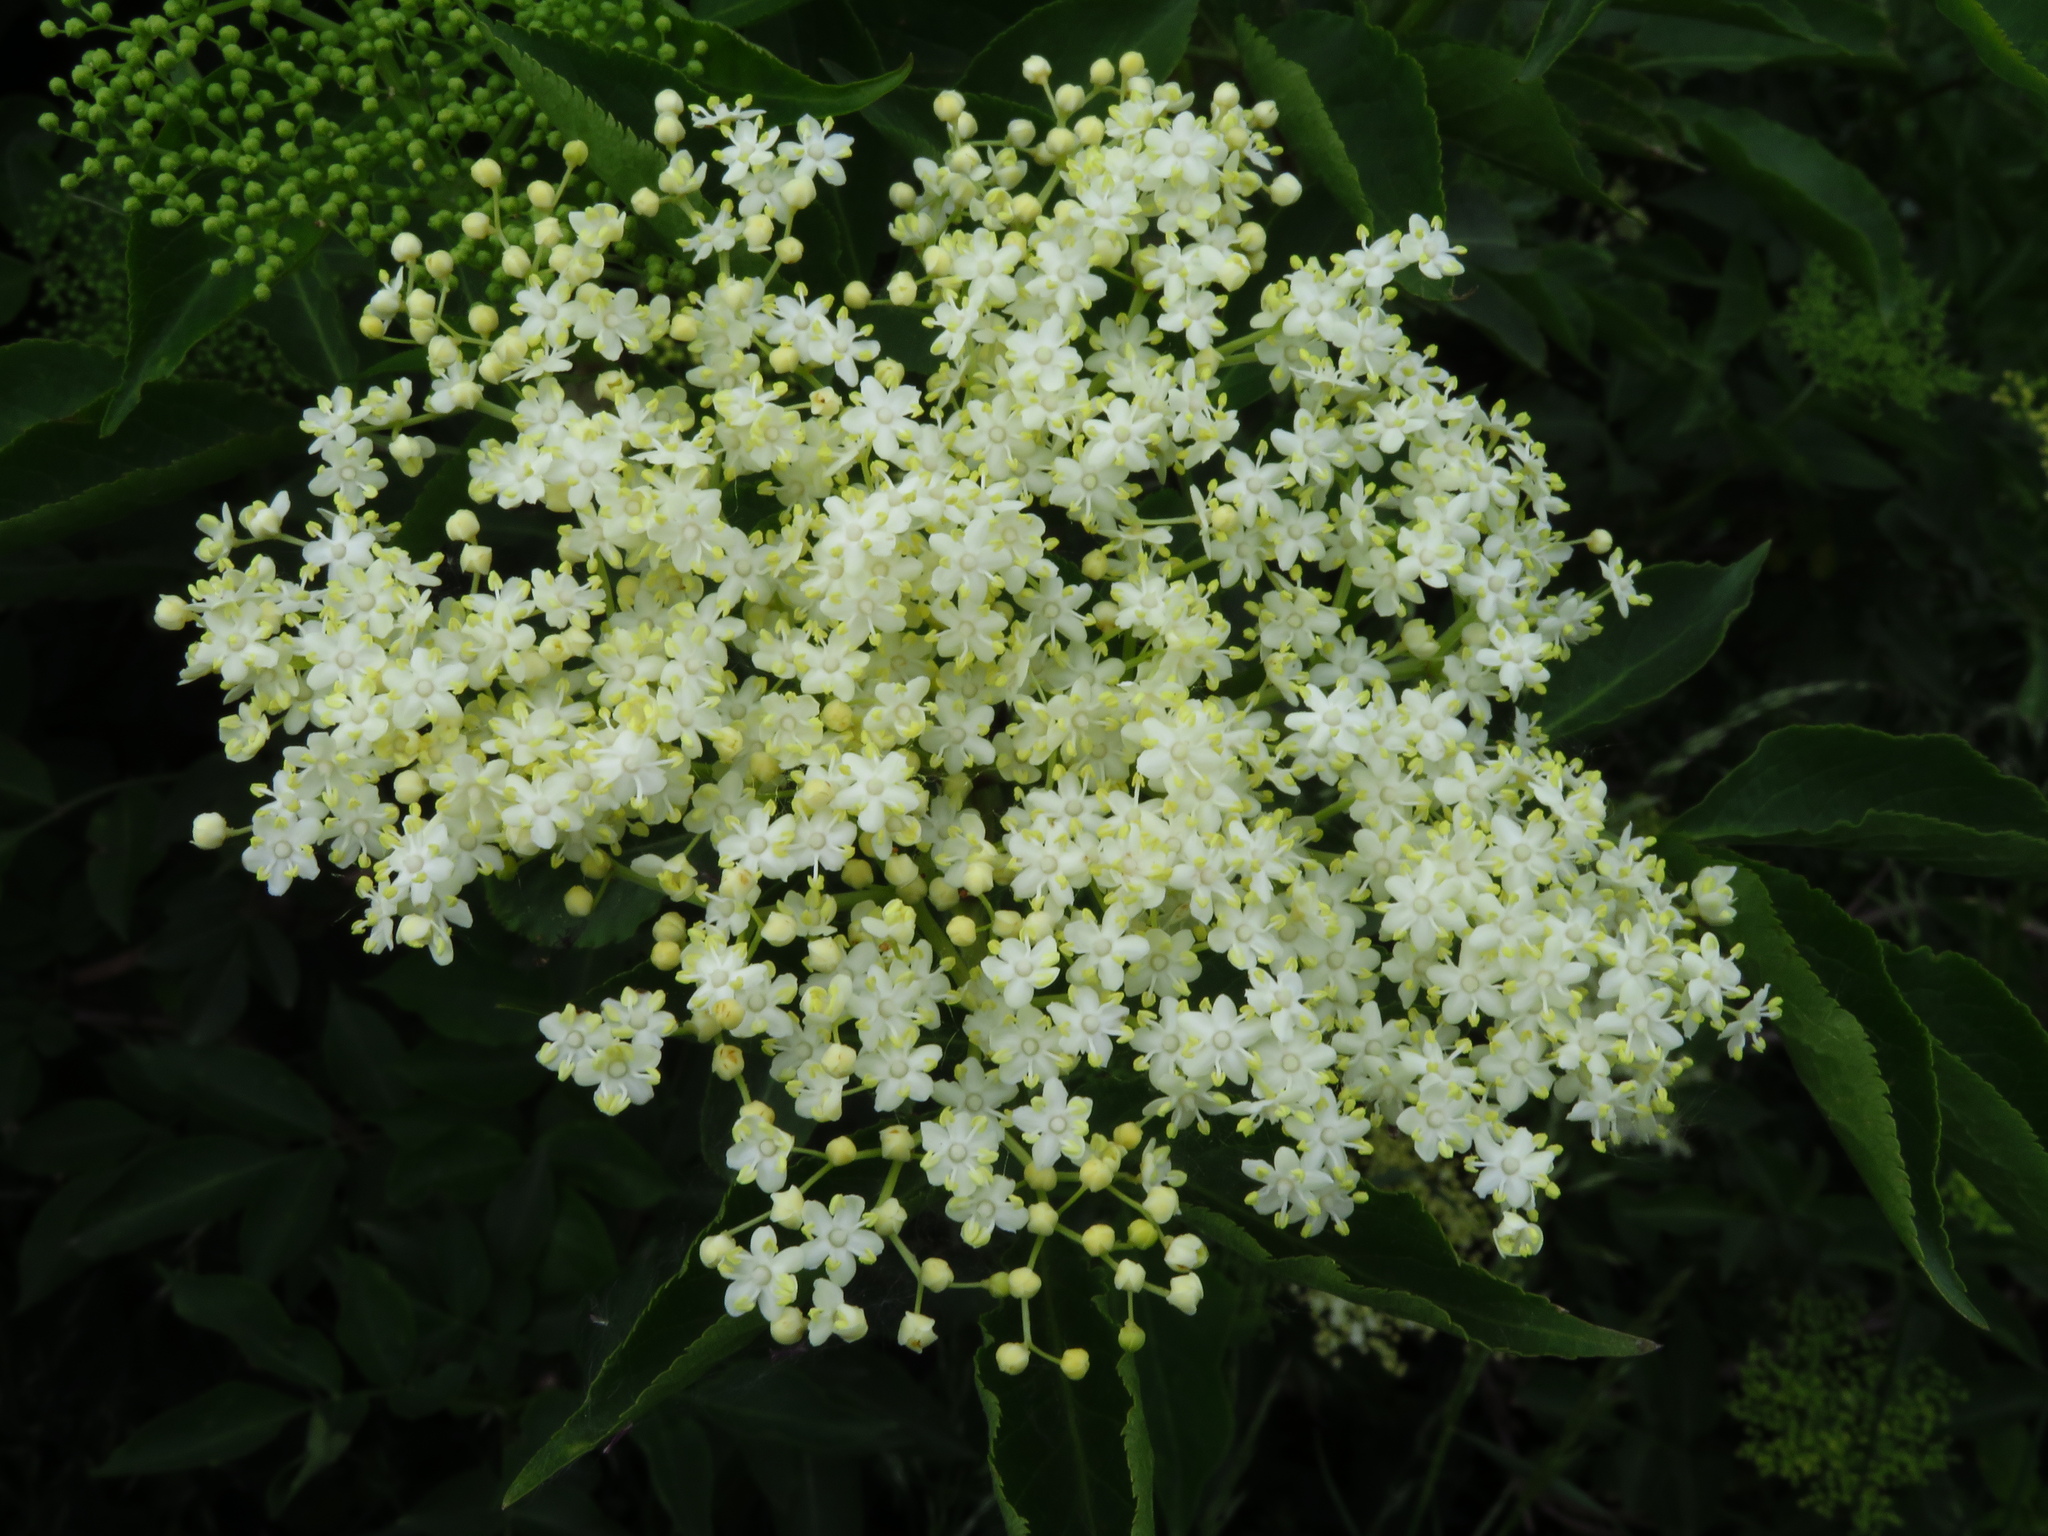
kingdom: Plantae
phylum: Tracheophyta
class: Magnoliopsida
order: Dipsacales
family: Viburnaceae
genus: Sambucus
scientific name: Sambucus nigra
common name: Elder
